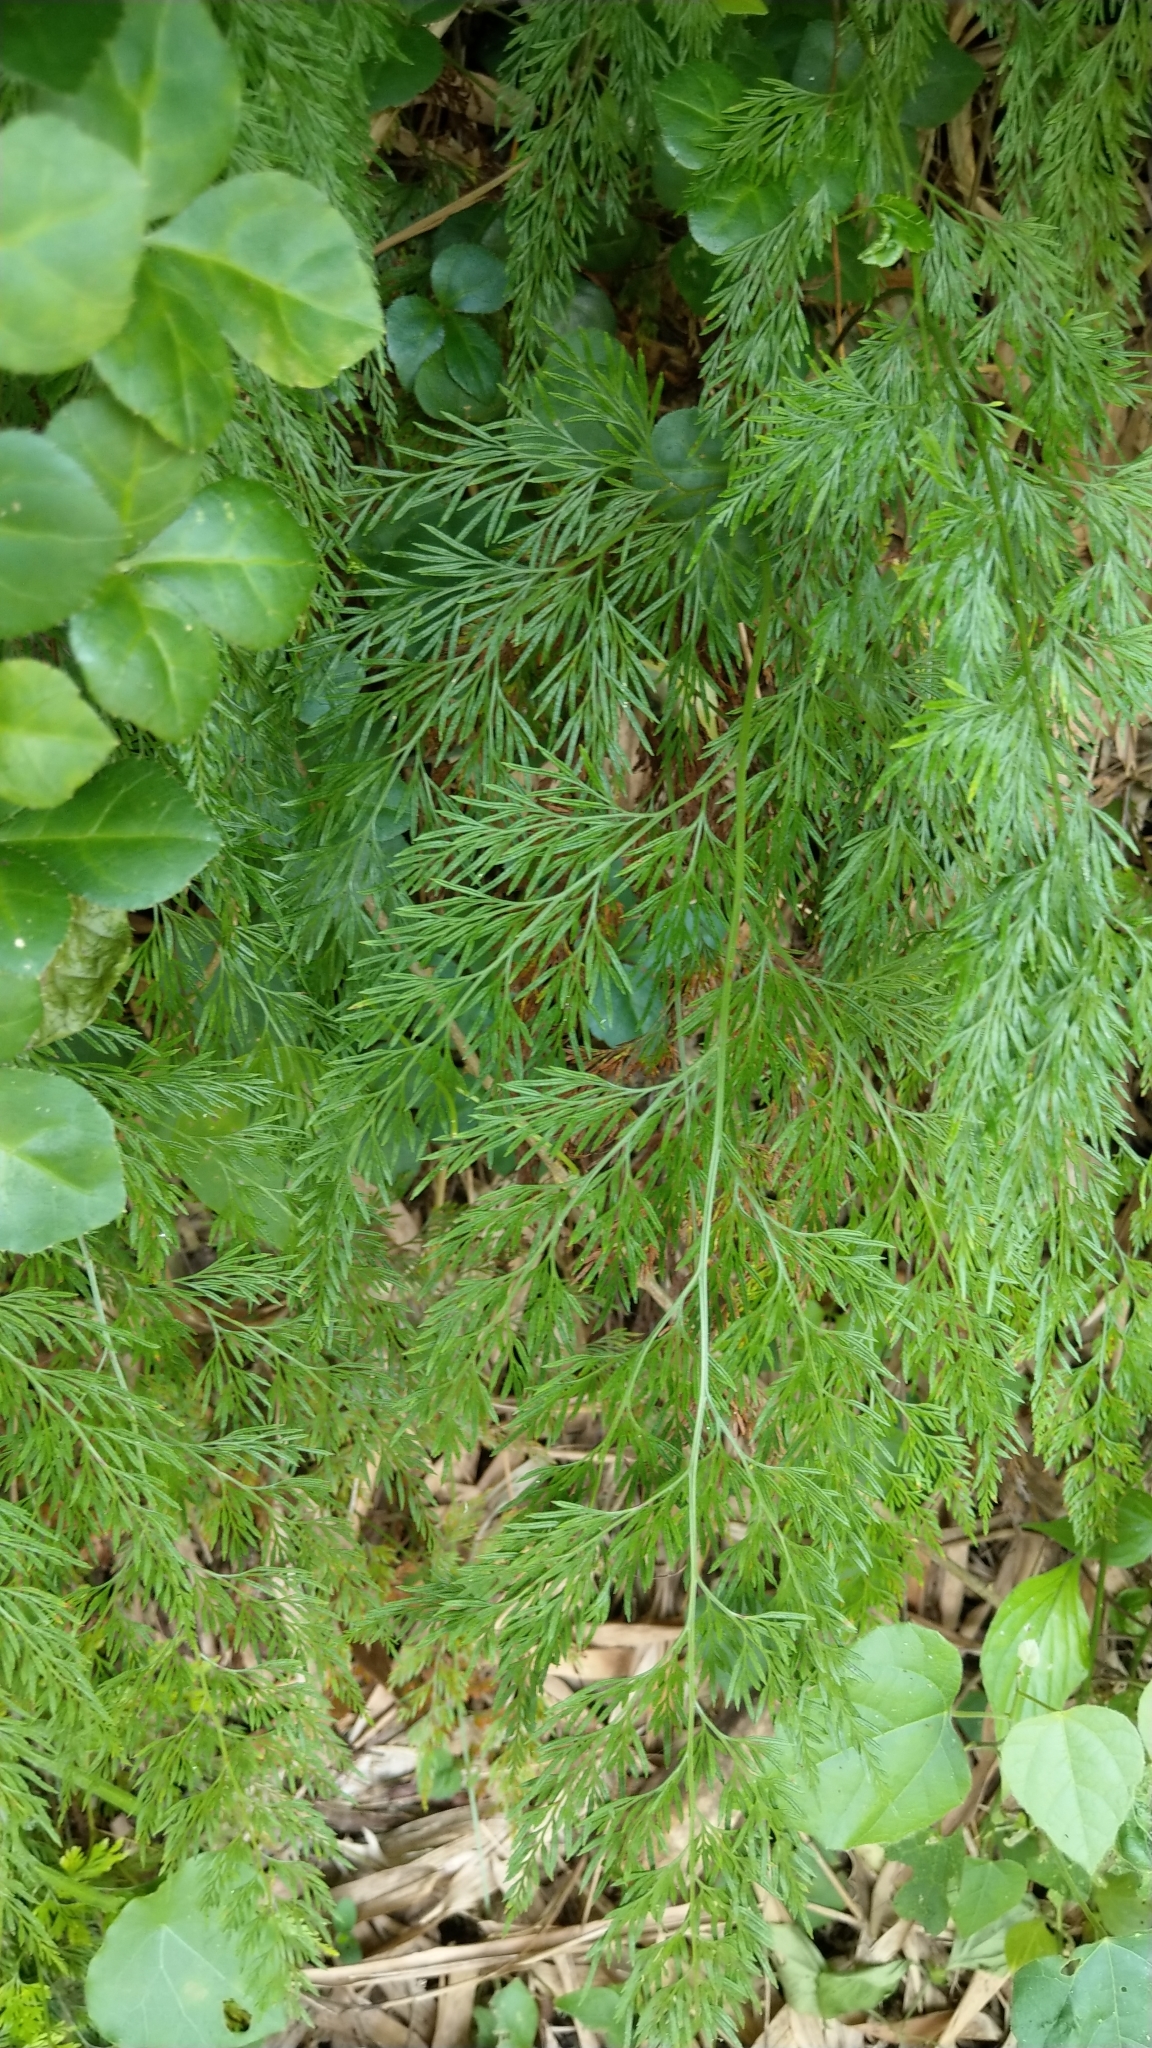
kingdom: Plantae
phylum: Tracheophyta
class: Polypodiopsida
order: Polypodiales
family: Pteridaceae
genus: Onychium
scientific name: Onychium japonicum
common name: Carrot fern
